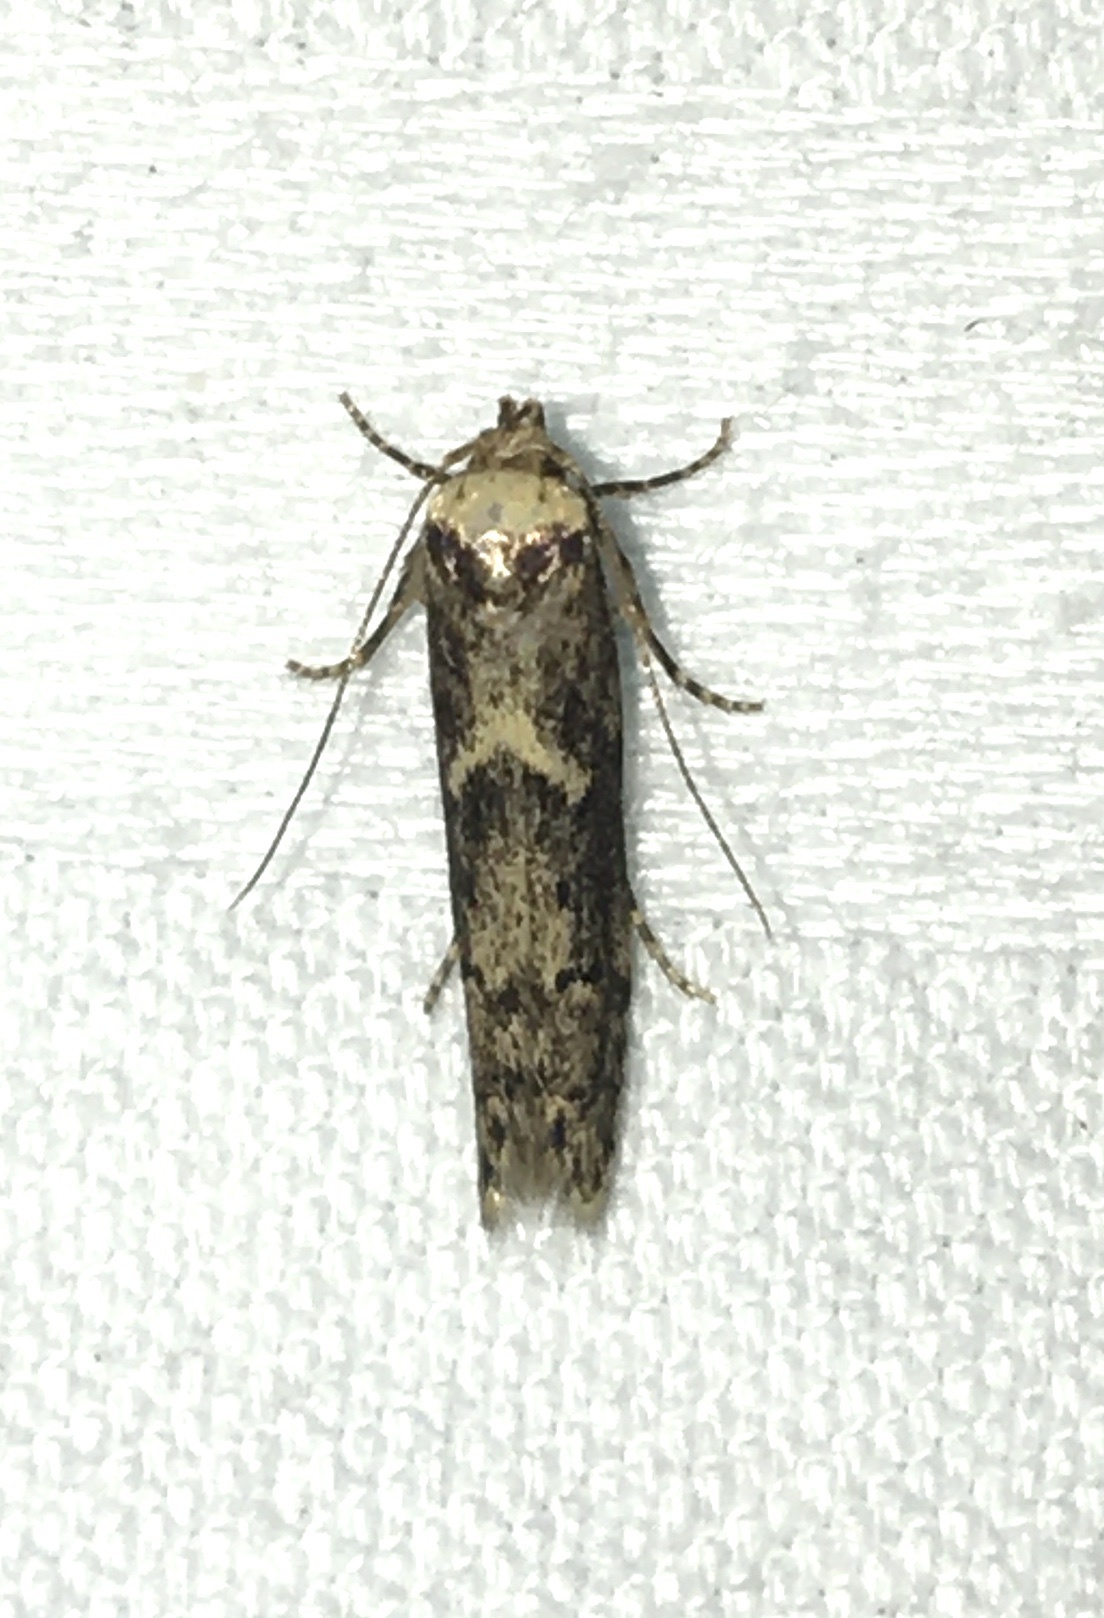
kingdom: Animalia
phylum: Arthropoda
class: Insecta
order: Lepidoptera
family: Blastobasidae
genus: Blastobasis
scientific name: Blastobasis adustella
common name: Dingy dowd
